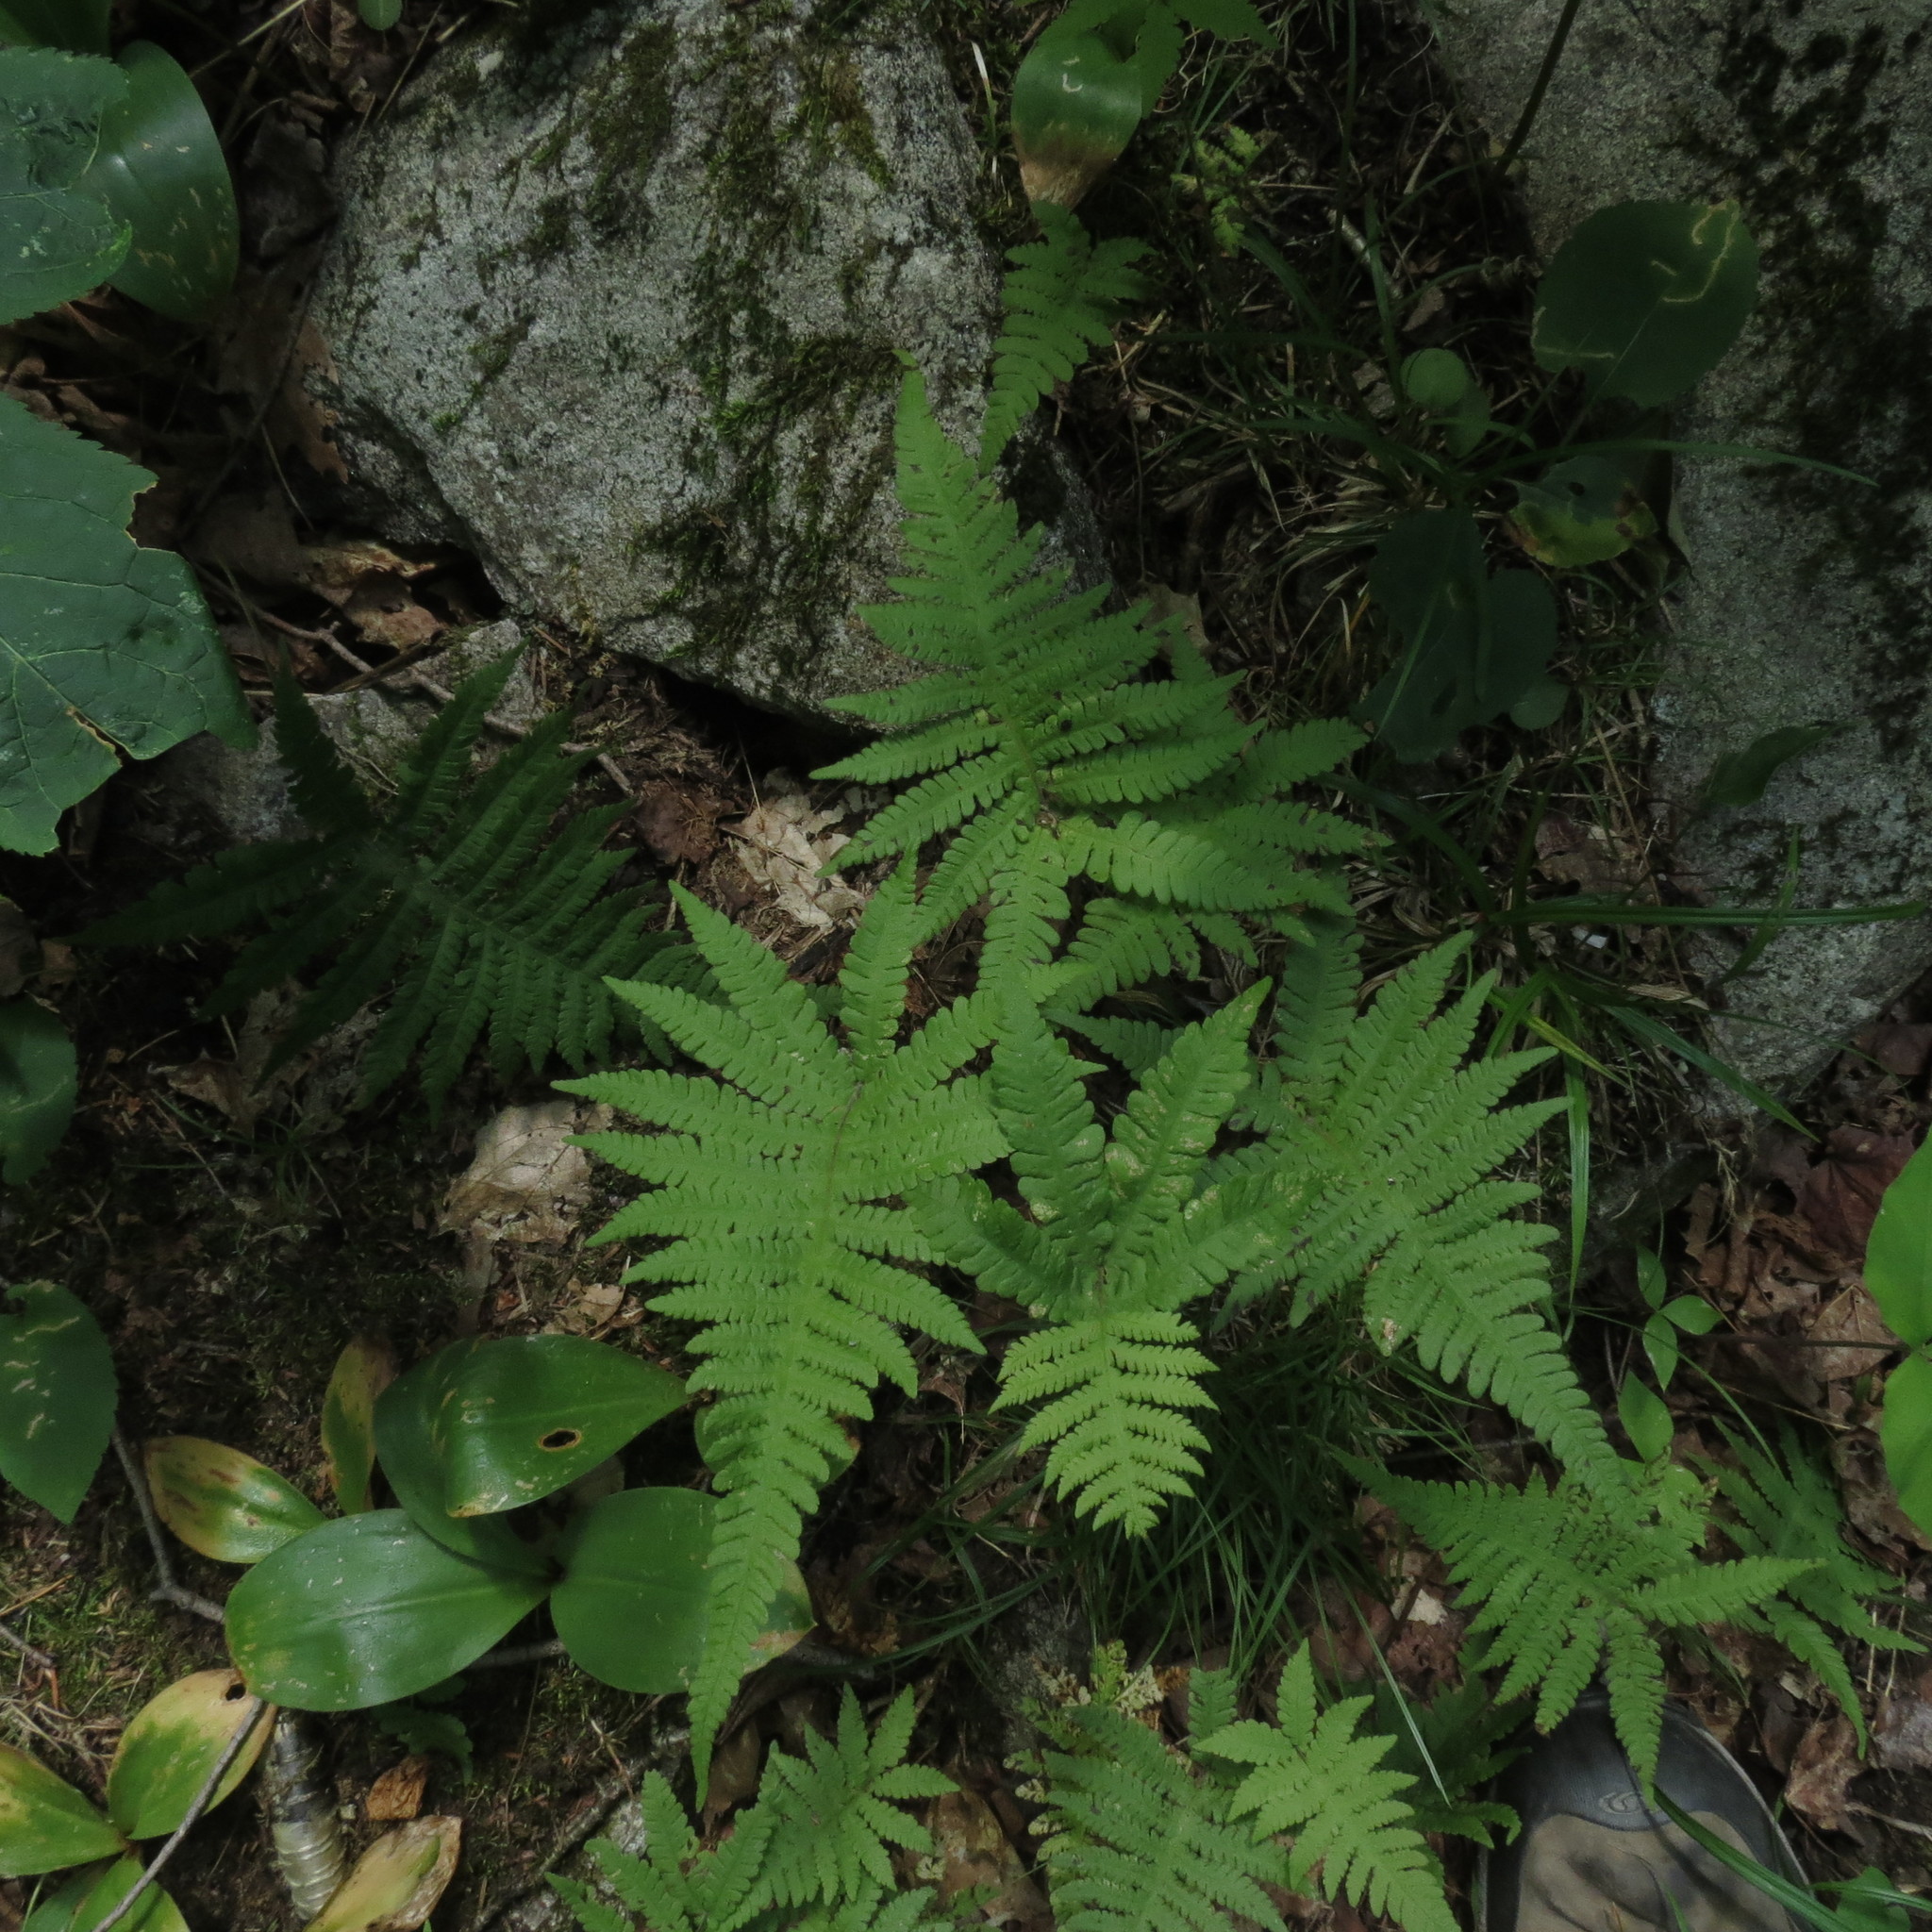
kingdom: Plantae
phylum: Tracheophyta
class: Polypodiopsida
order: Polypodiales
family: Thelypteridaceae
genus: Phegopteris
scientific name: Phegopteris connectilis
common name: Beech fern
